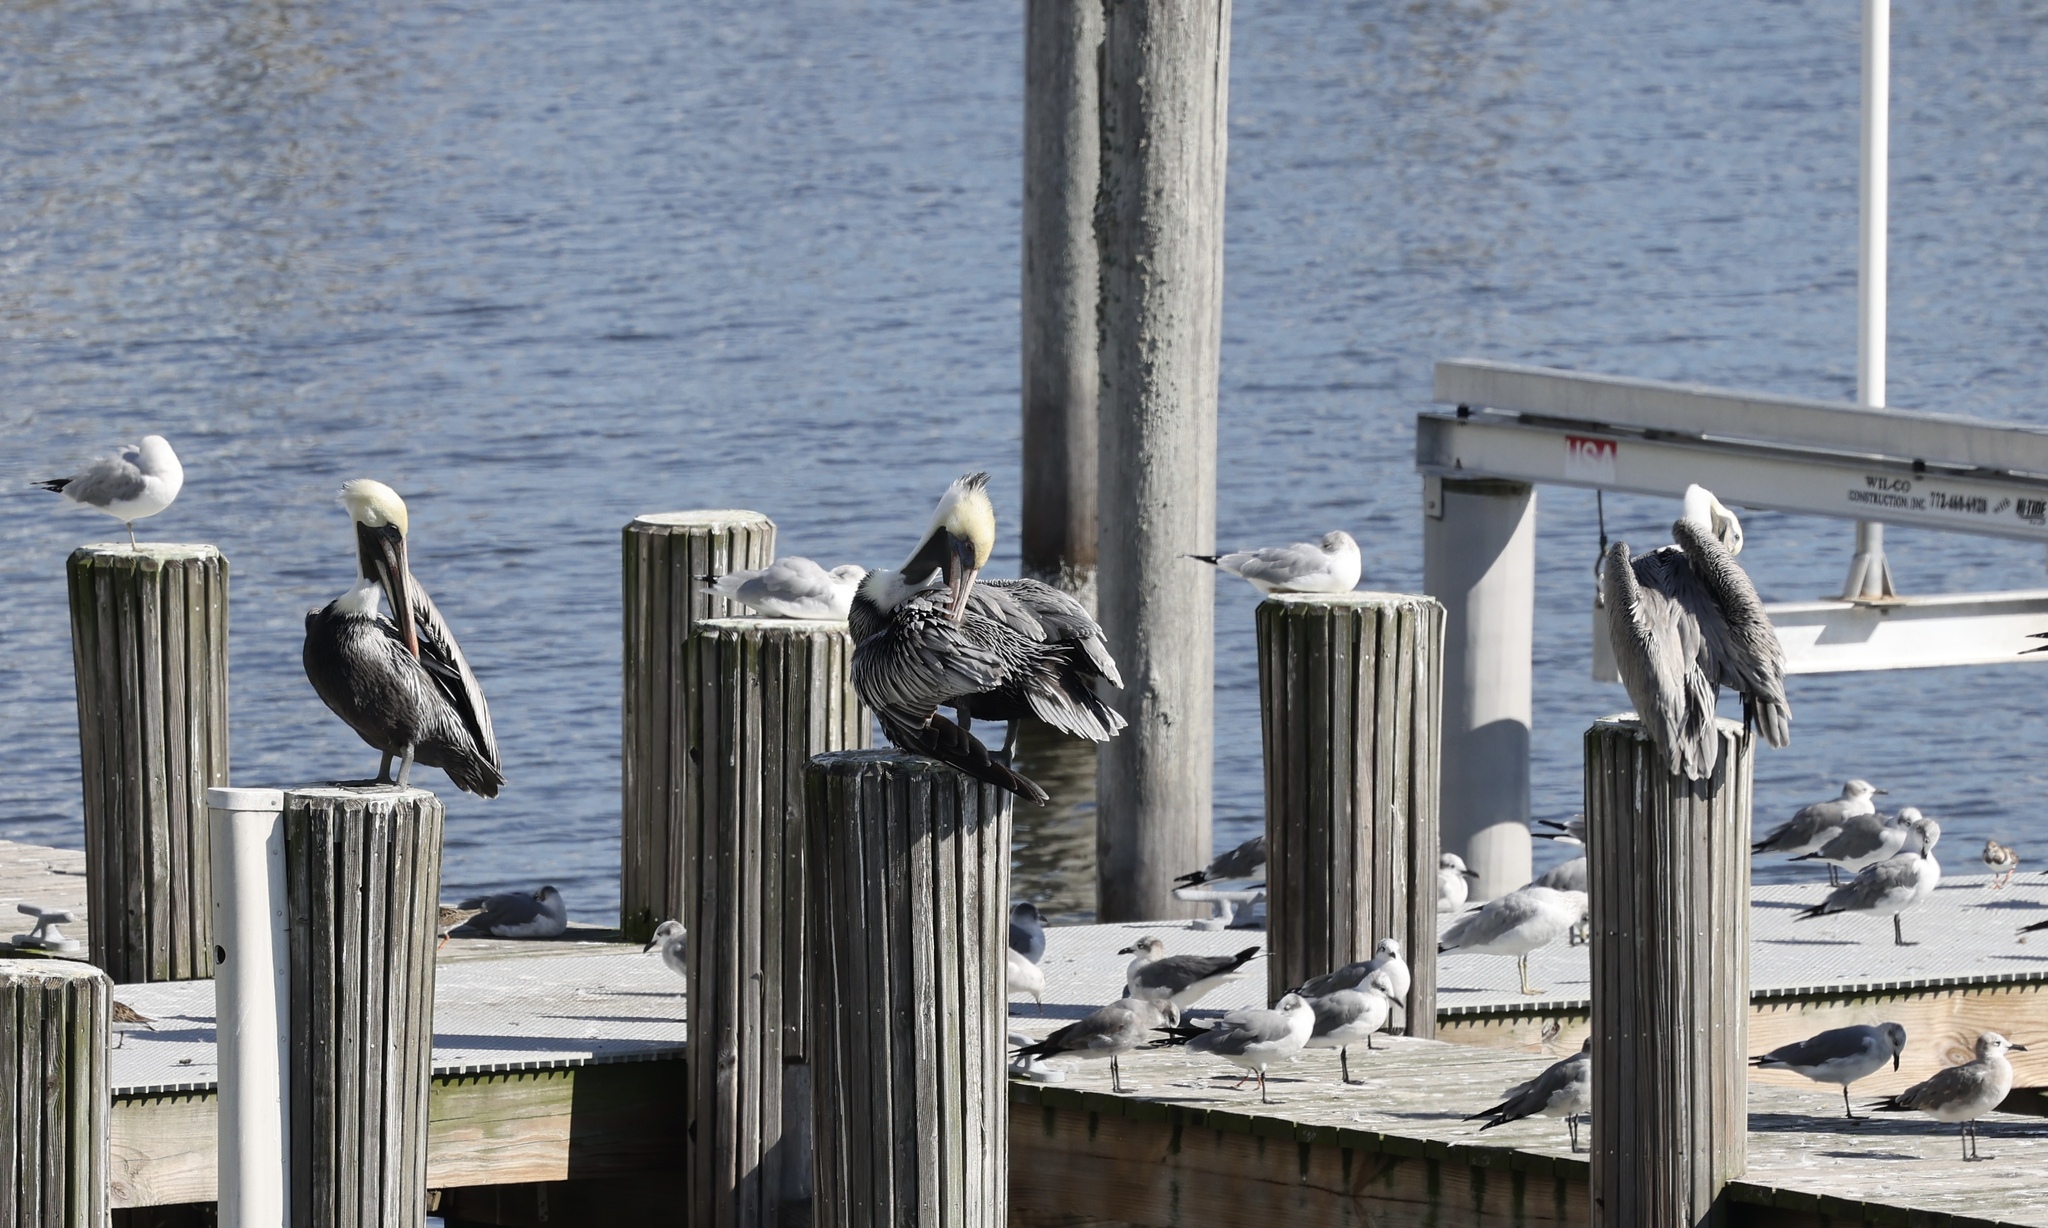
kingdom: Animalia
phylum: Chordata
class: Aves
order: Pelecaniformes
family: Pelecanidae
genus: Pelecanus
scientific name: Pelecanus occidentalis
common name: Brown pelican
